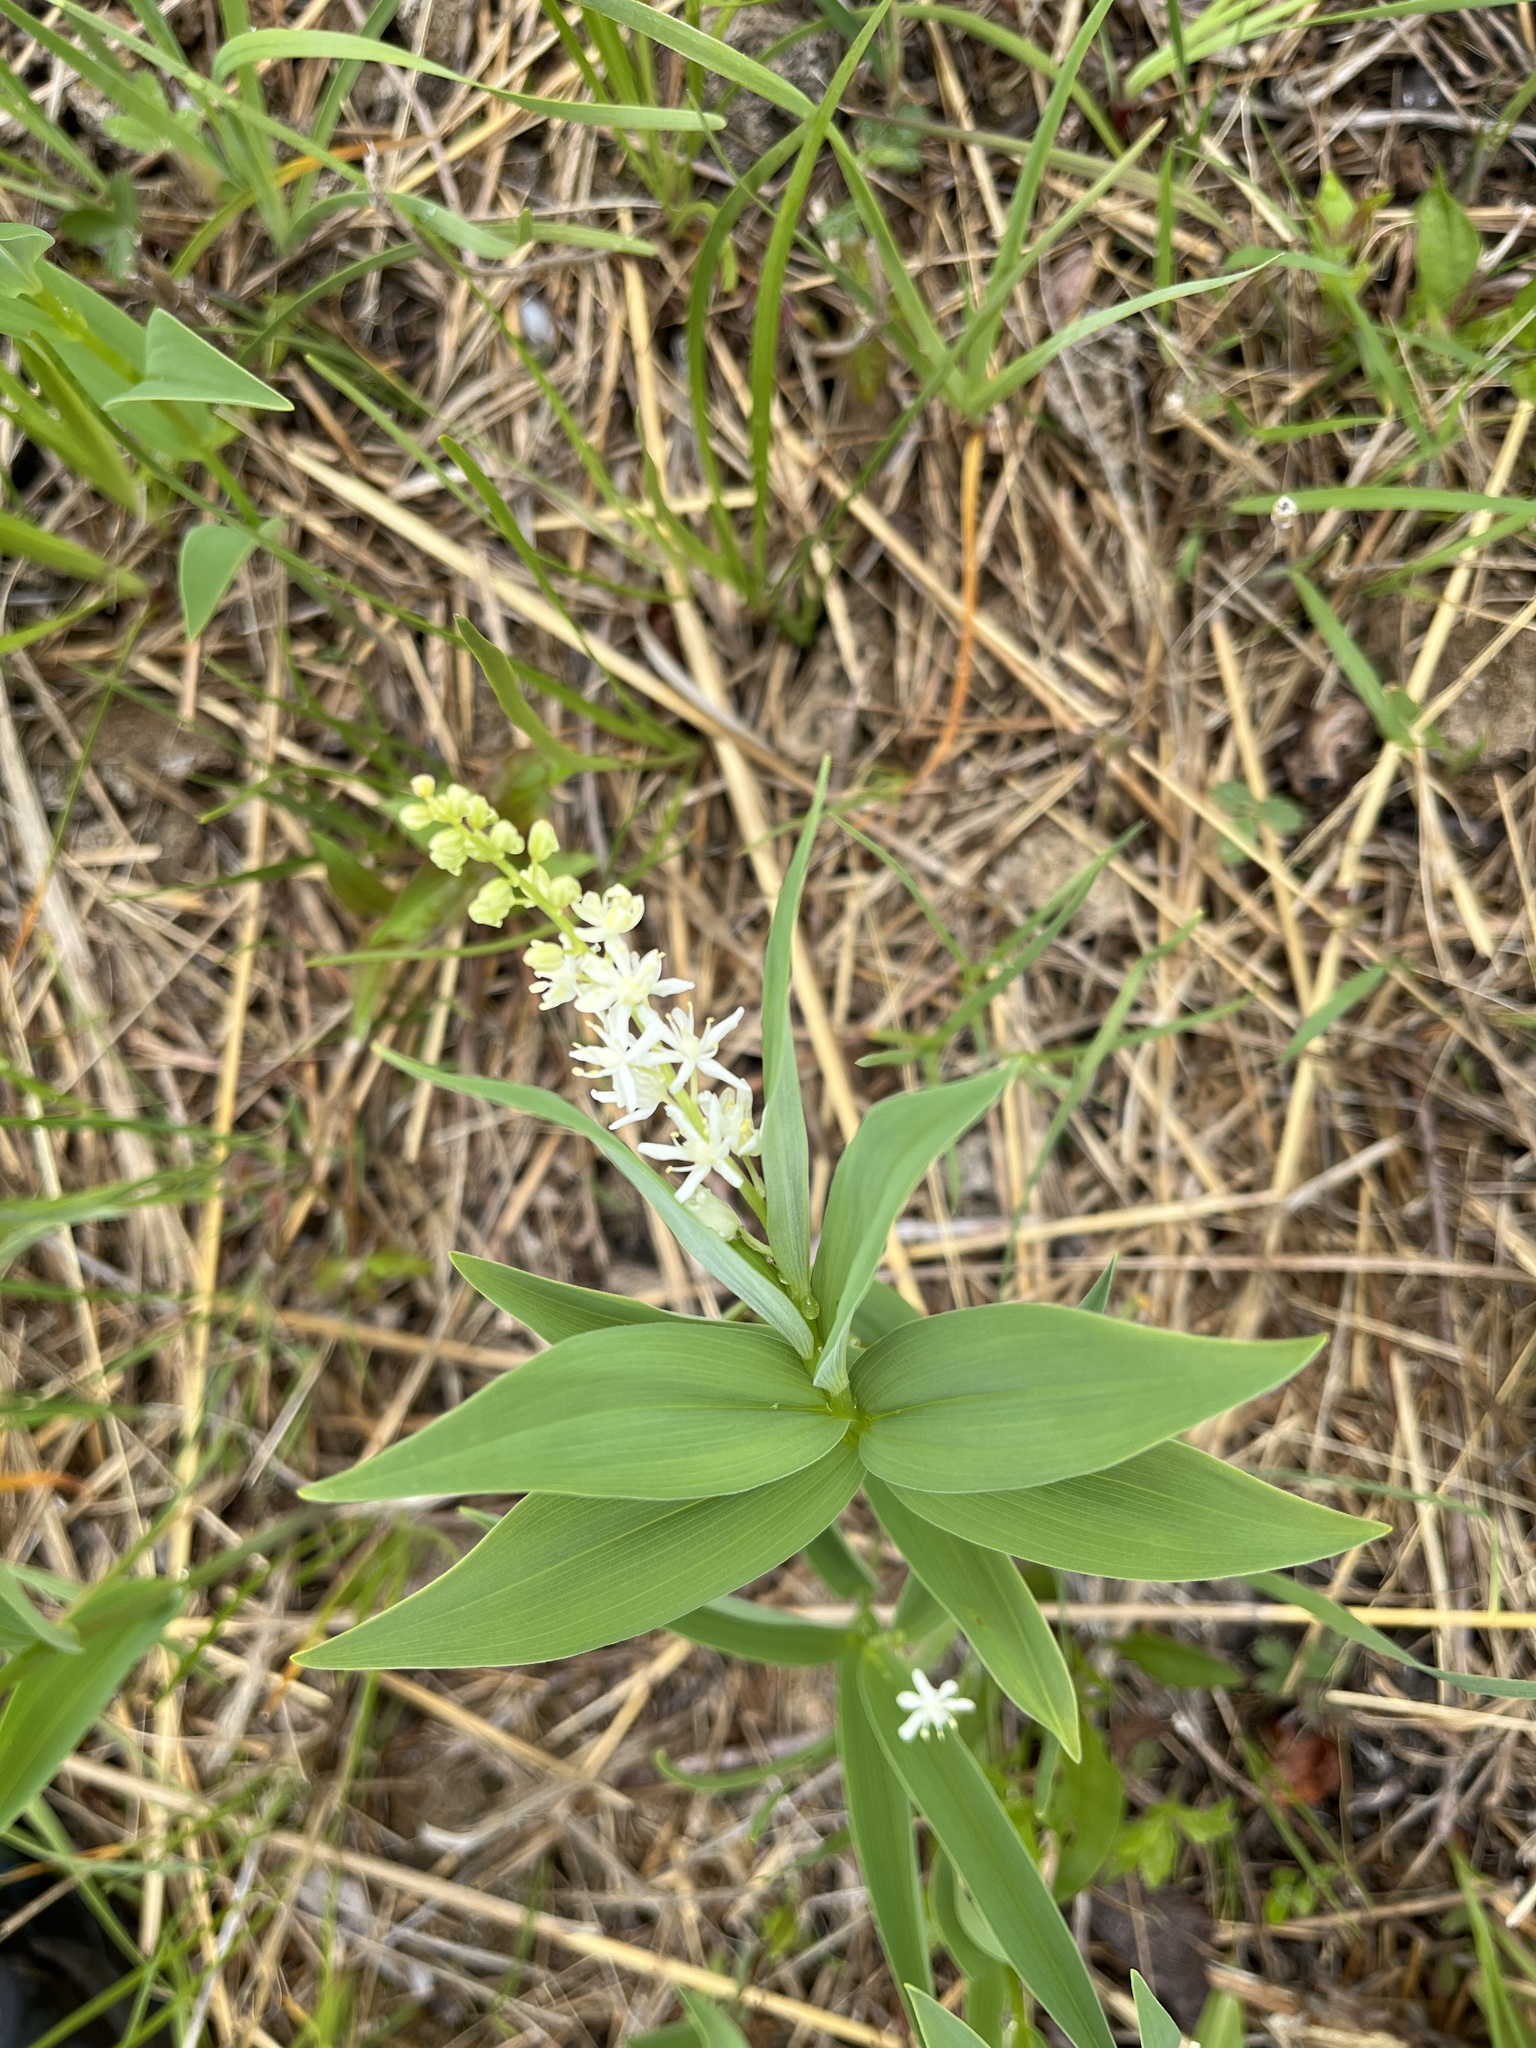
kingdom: Plantae
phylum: Tracheophyta
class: Liliopsida
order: Asparagales
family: Asparagaceae
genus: Maianthemum
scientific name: Maianthemum stellatum
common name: Little false solomon's seal
